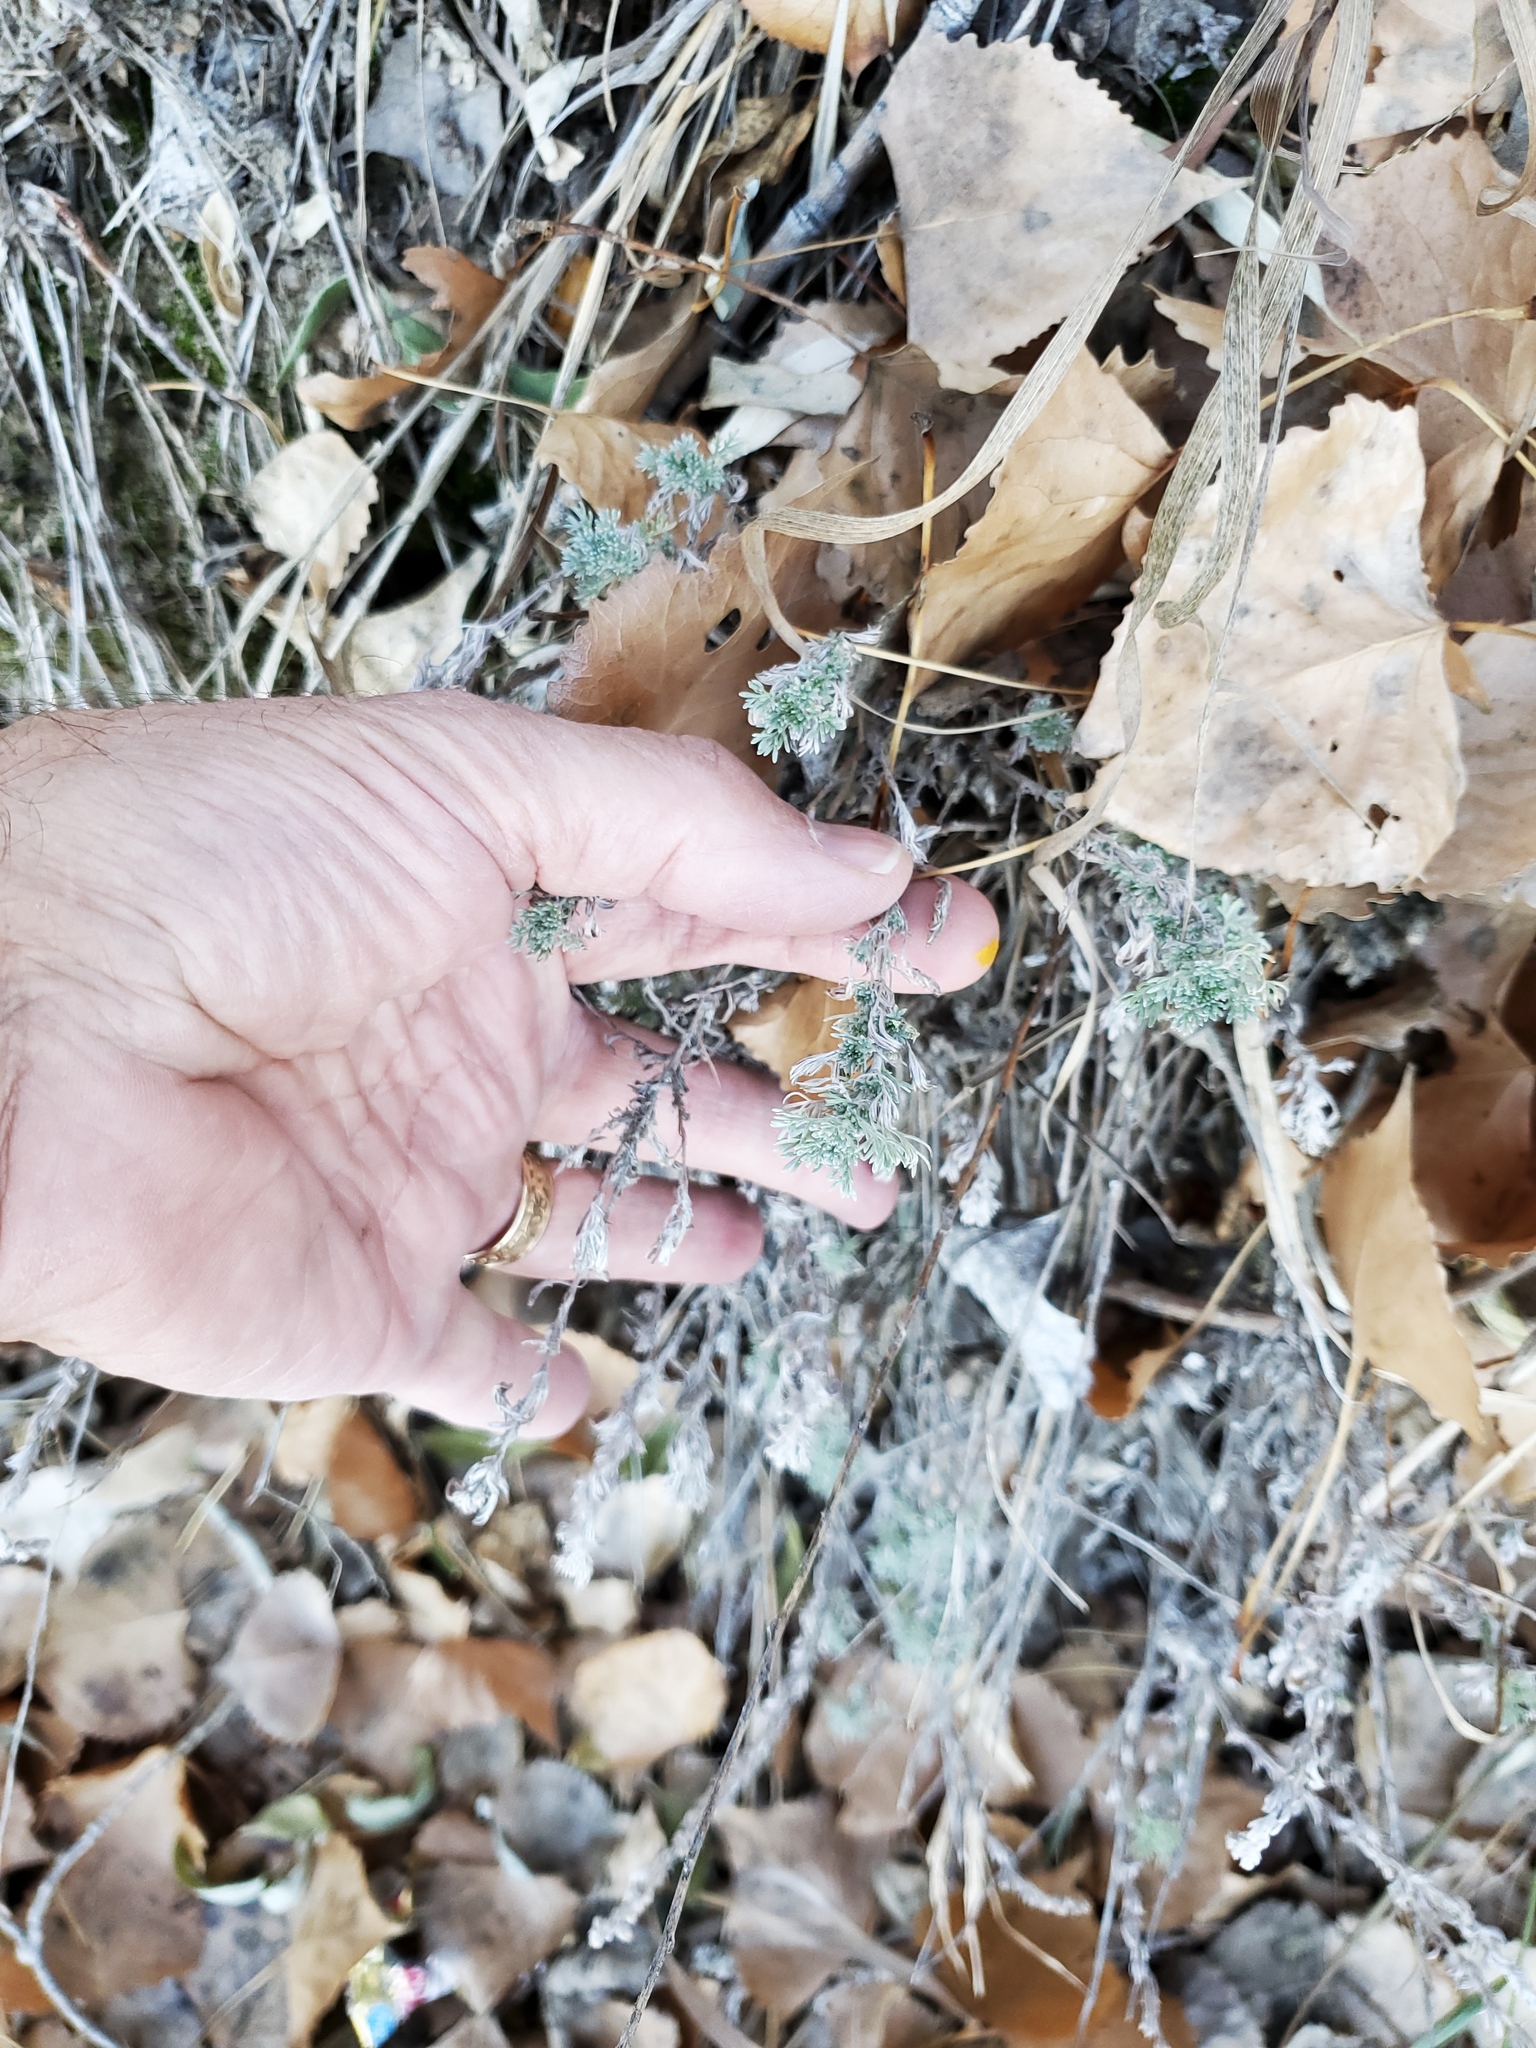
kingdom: Plantae
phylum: Tracheophyta
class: Magnoliopsida
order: Asterales
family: Asteraceae
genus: Artemisia
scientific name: Artemisia frigida
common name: Prairie sagewort
